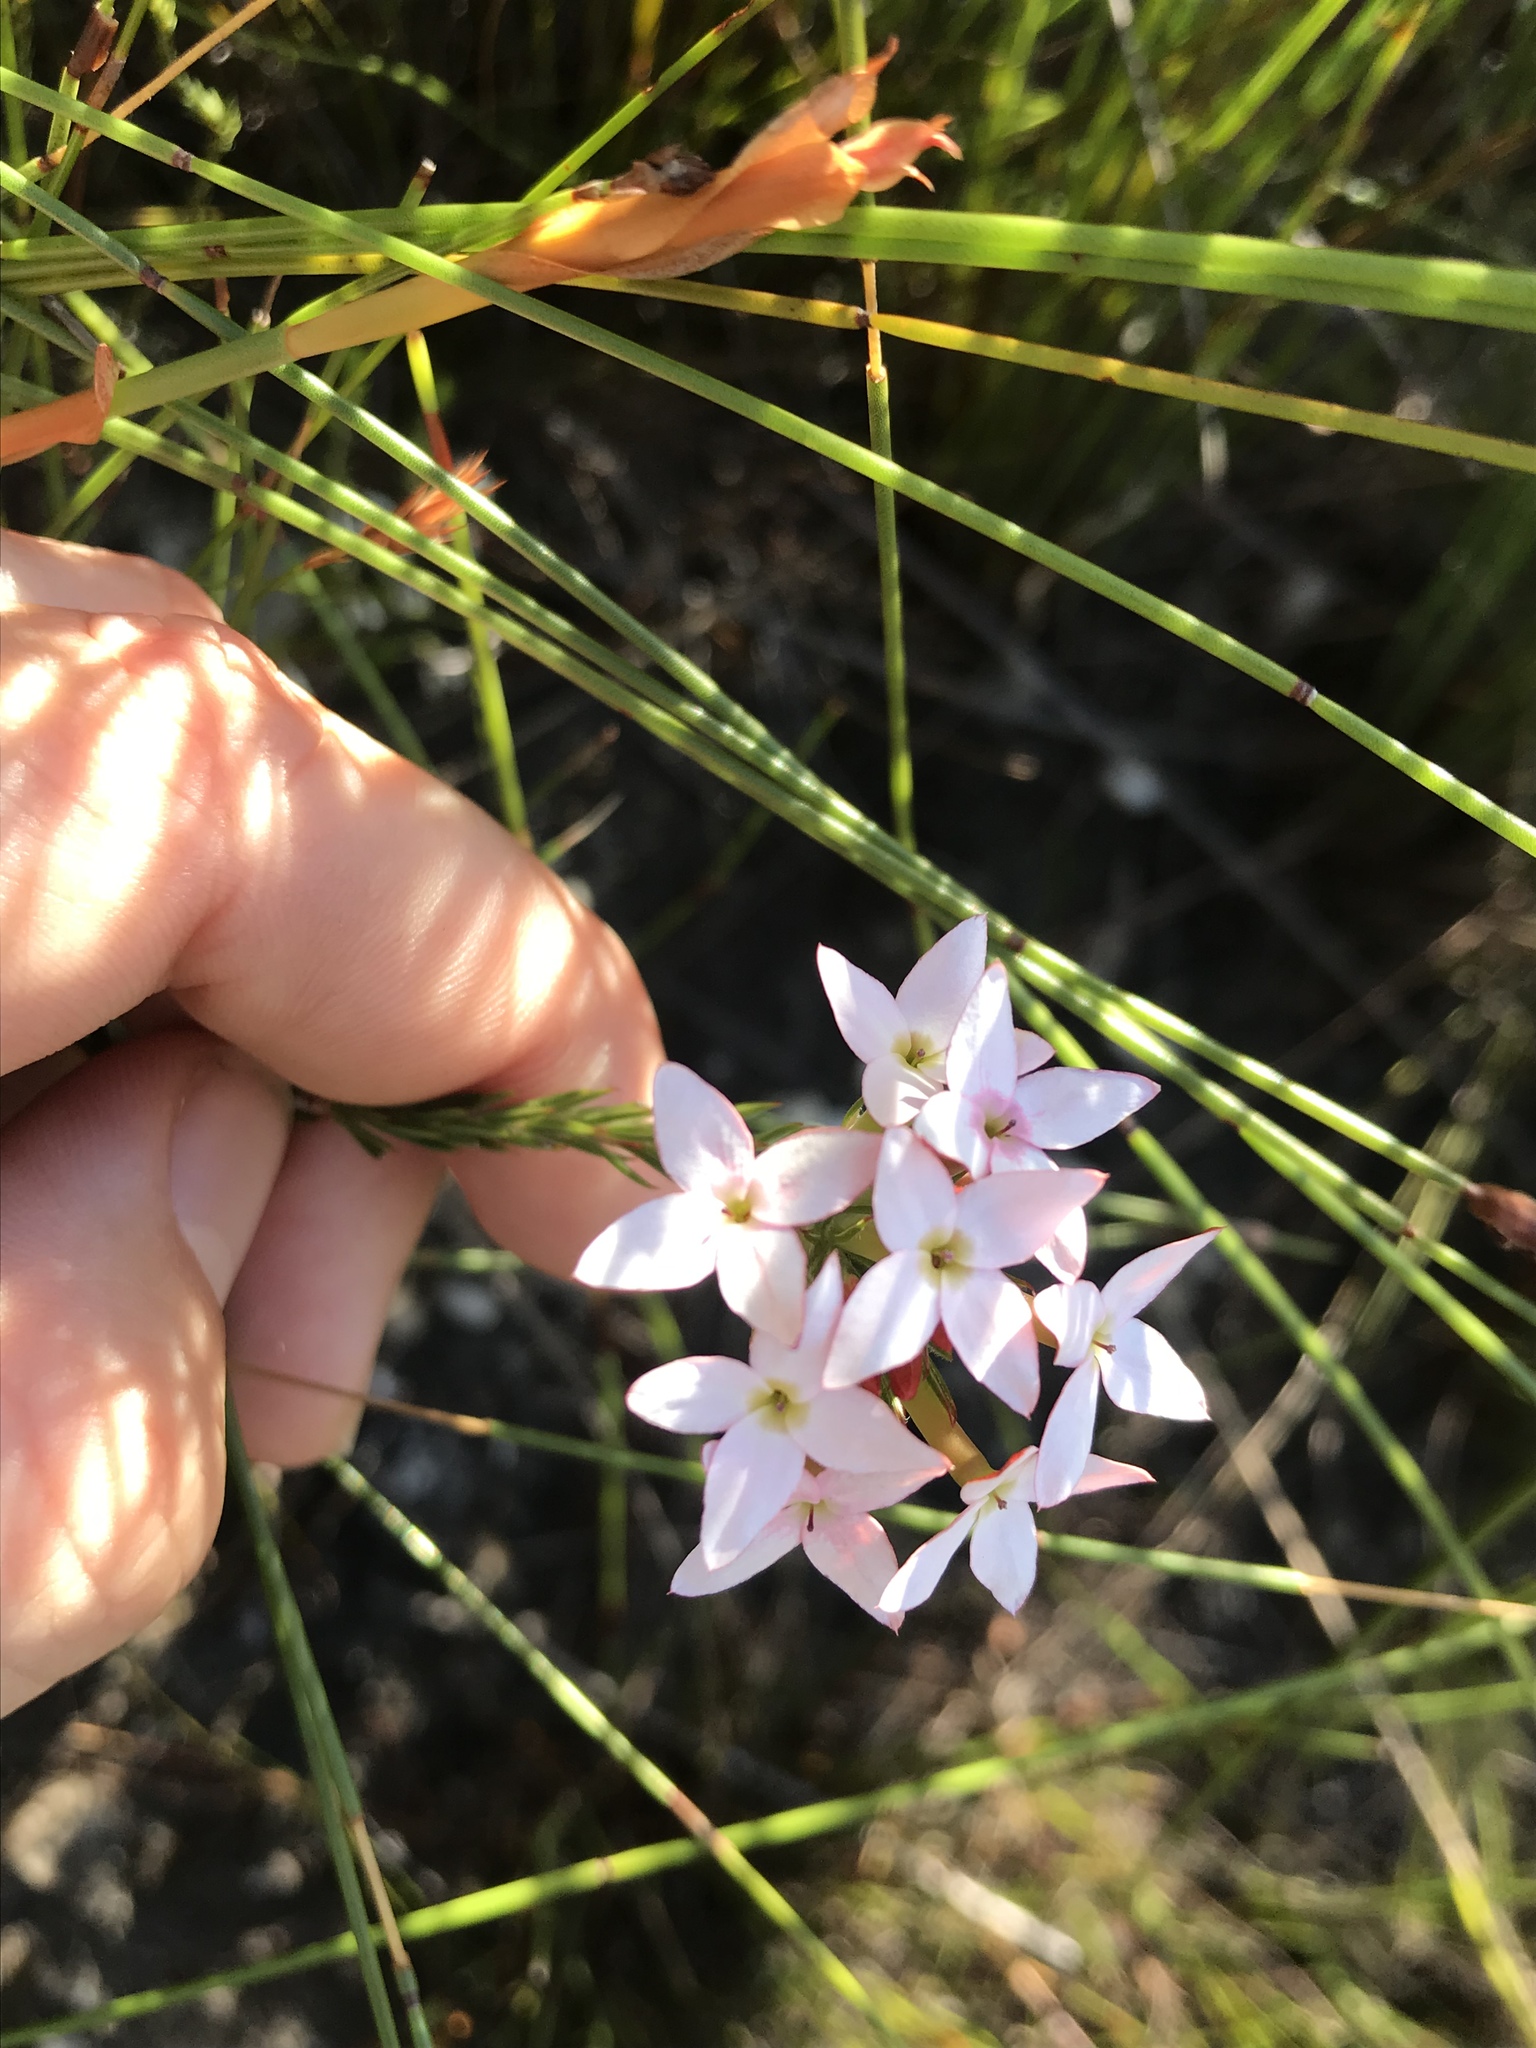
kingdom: Plantae
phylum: Tracheophyta
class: Magnoliopsida
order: Ericales
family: Ericaceae
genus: Erica
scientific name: Erica fastigiata
